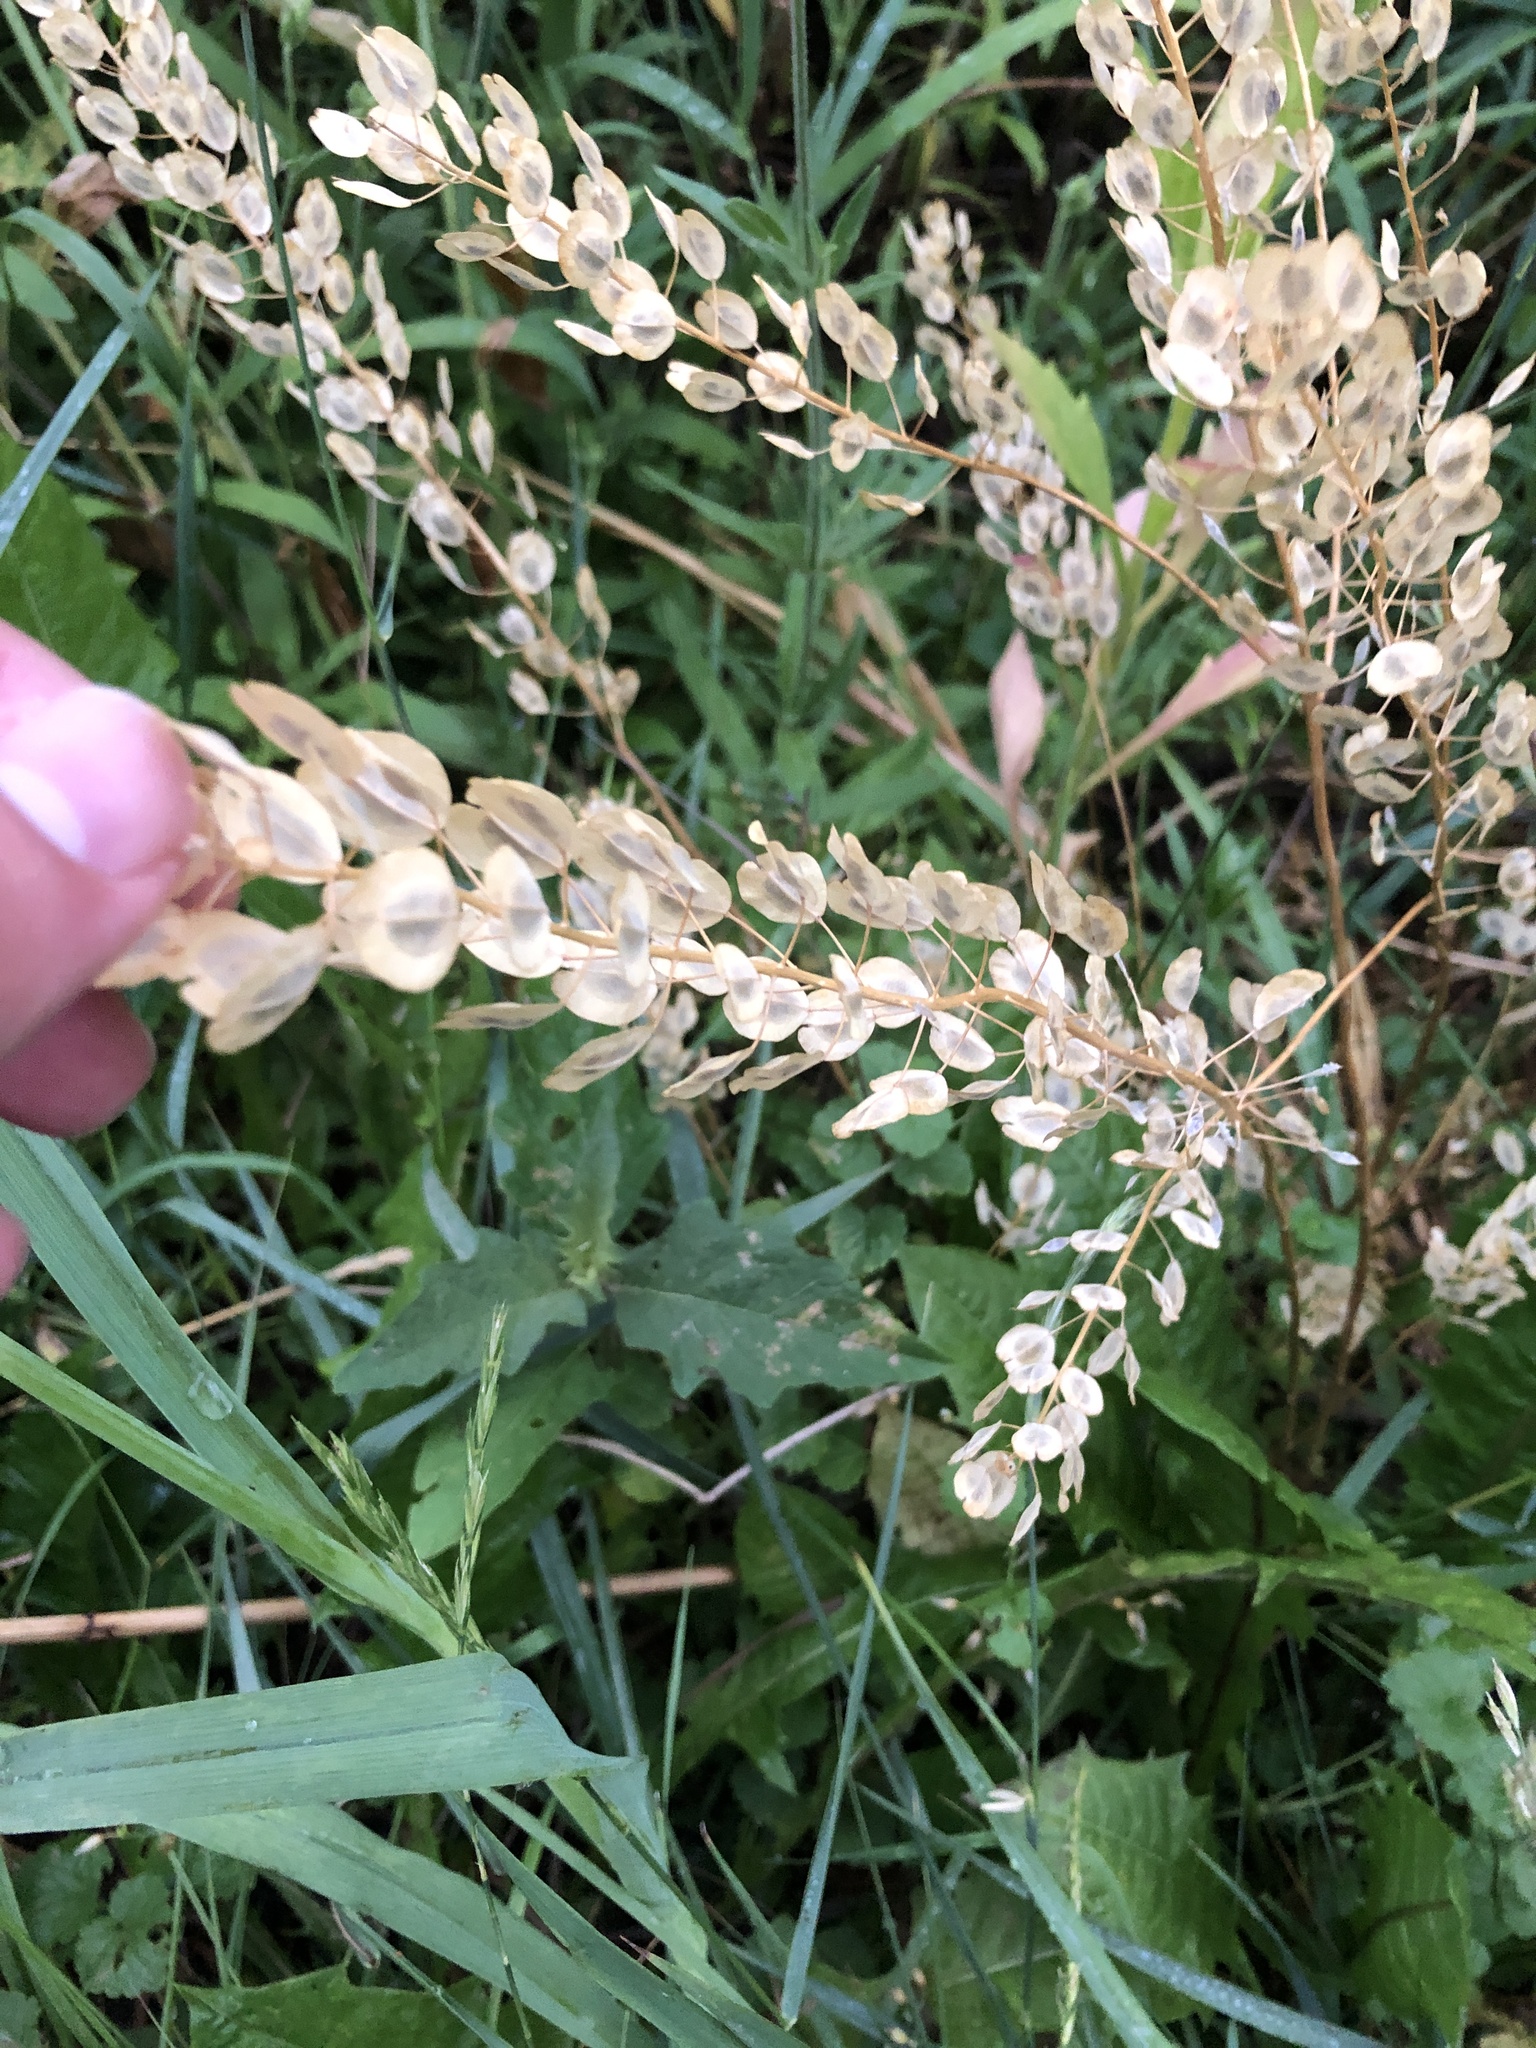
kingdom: Plantae
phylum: Tracheophyta
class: Magnoliopsida
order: Brassicales
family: Brassicaceae
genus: Thlaspi
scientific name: Thlaspi arvense
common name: Field pennycress
